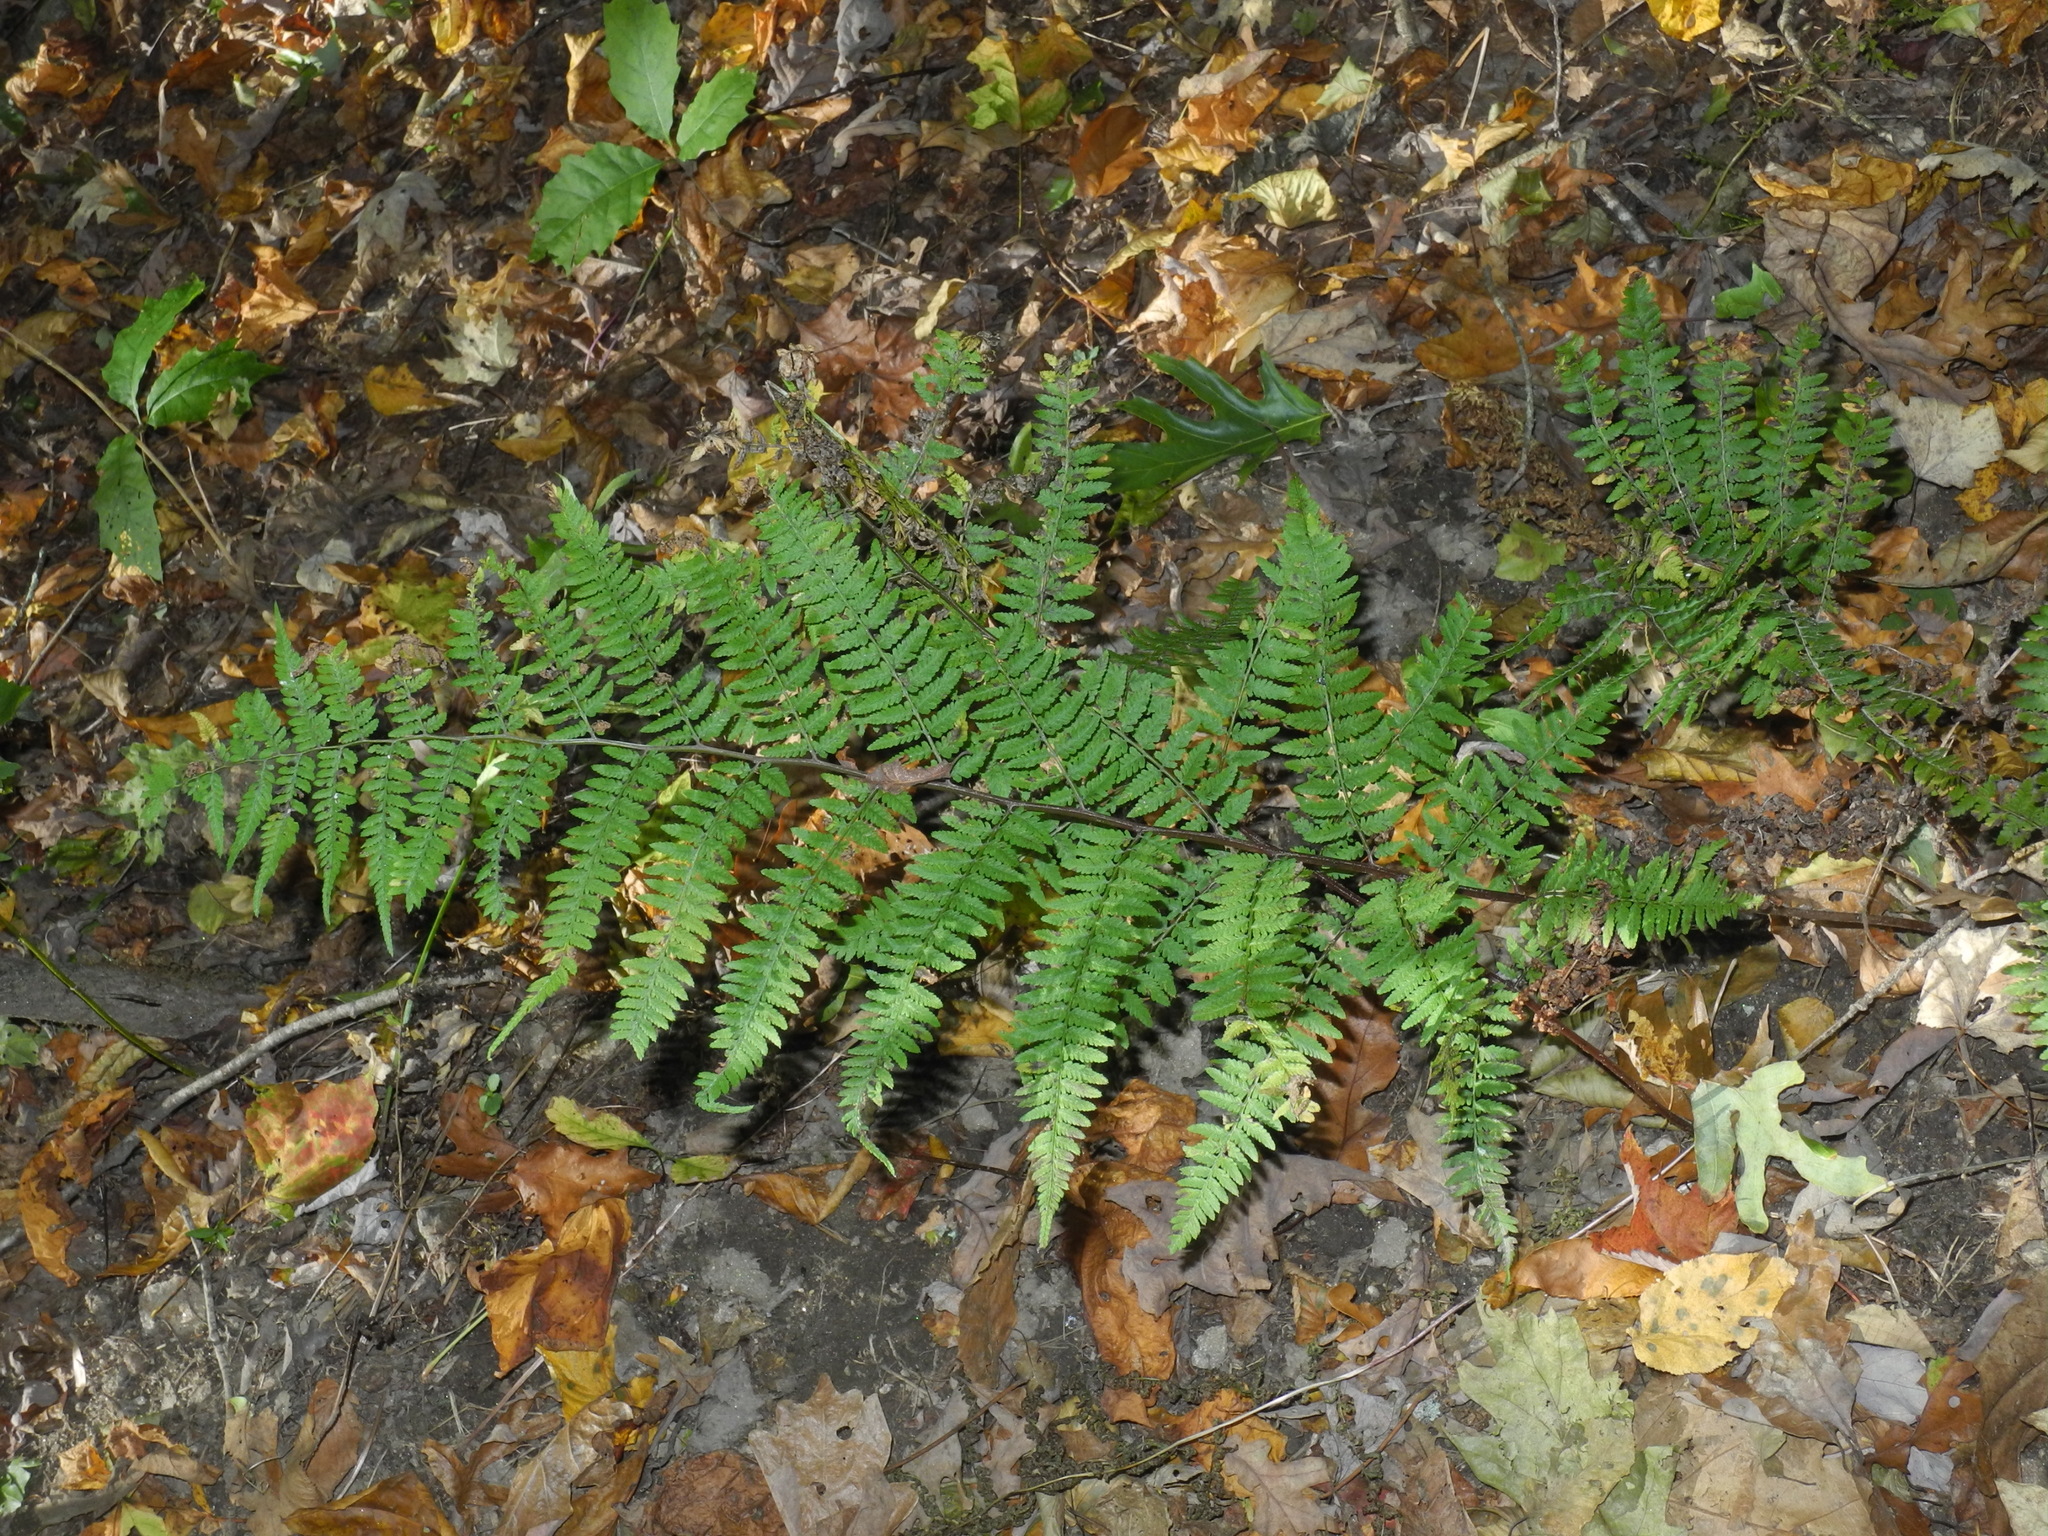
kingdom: Plantae
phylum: Tracheophyta
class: Polypodiopsida
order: Polypodiales
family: Athyriaceae
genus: Athyrium
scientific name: Athyrium asplenioides
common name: Southern lady fern
